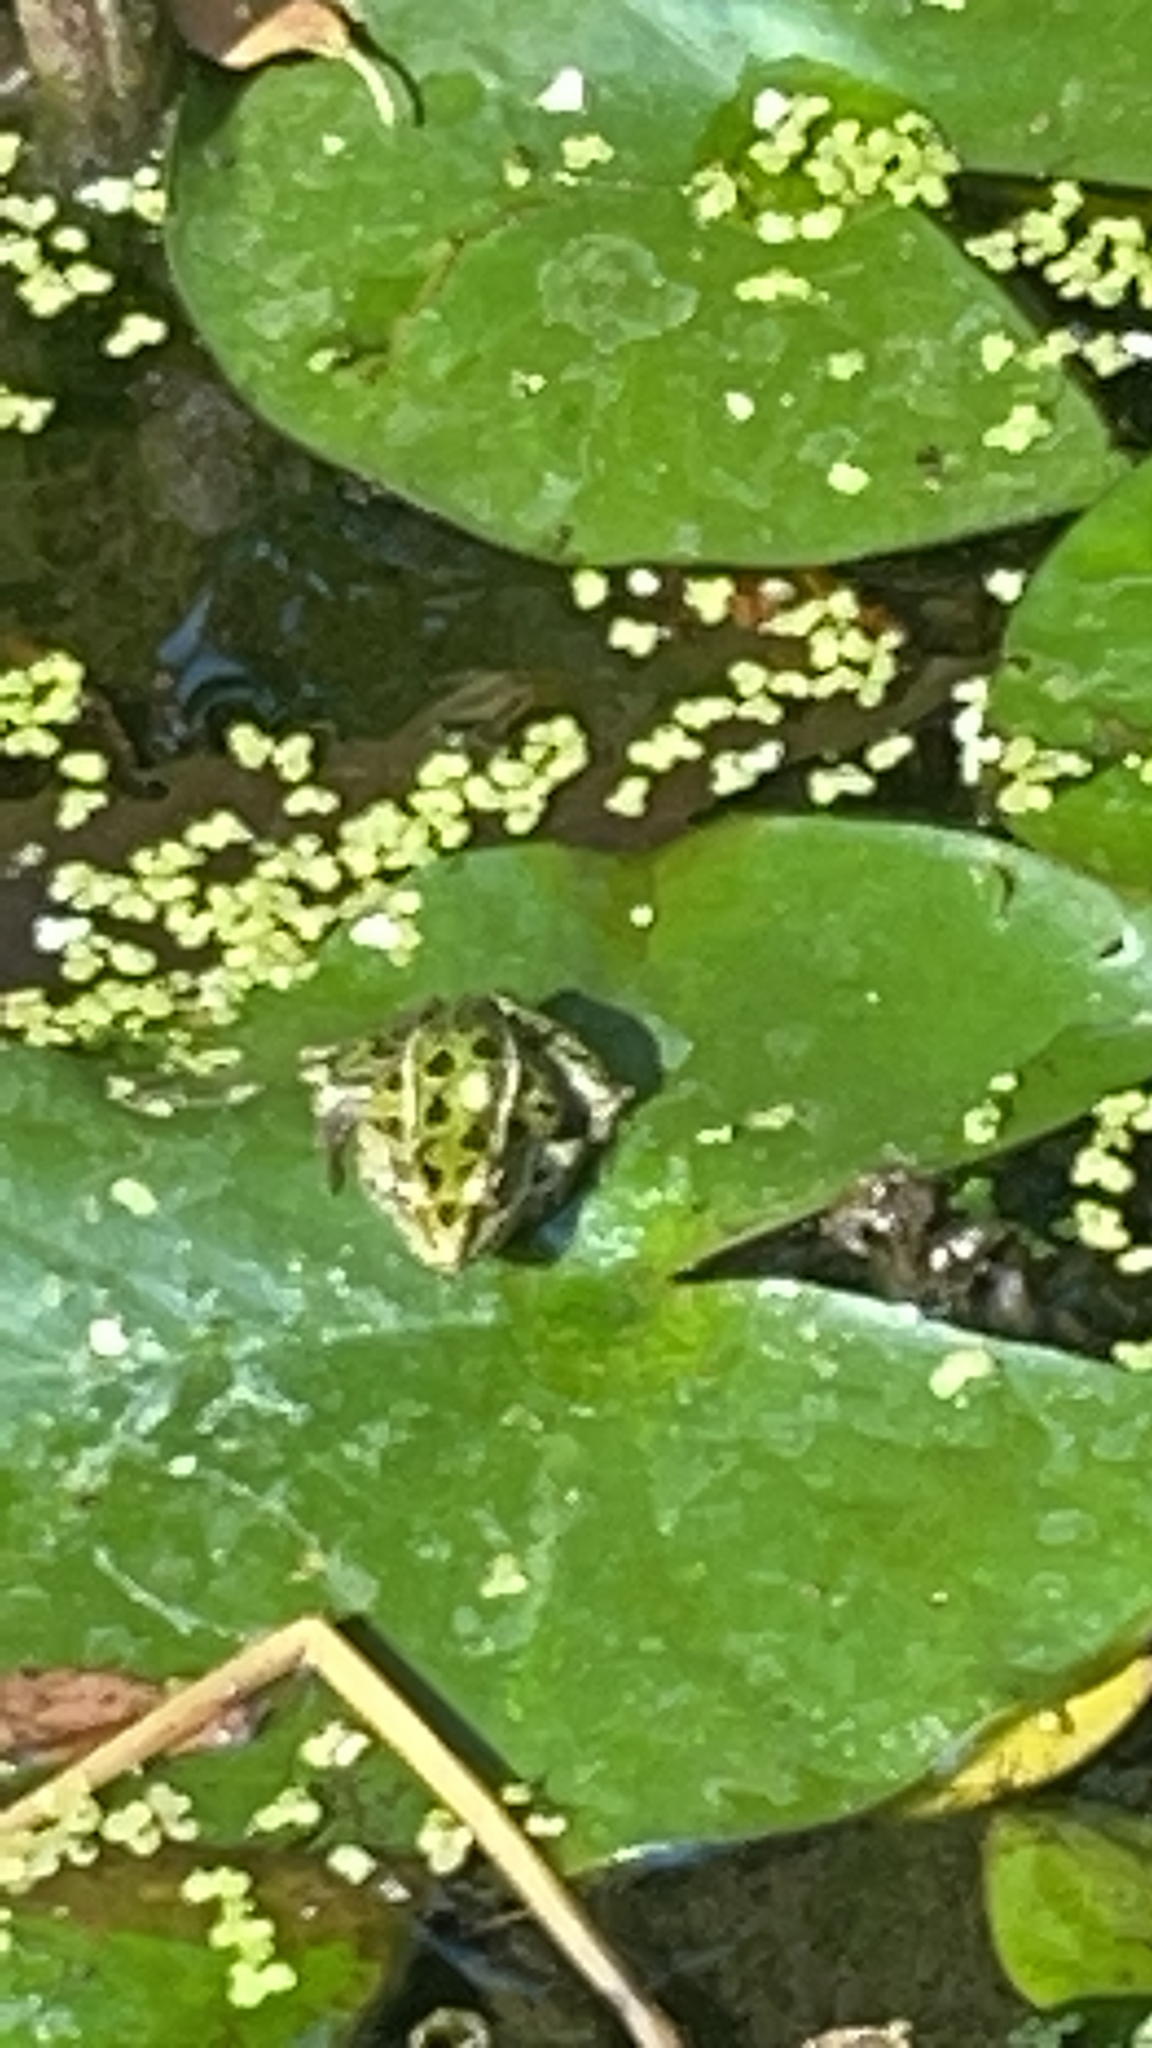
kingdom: Animalia
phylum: Chordata
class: Amphibia
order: Anura
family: Ranidae
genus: Lithobates
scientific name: Lithobates pipiens
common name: Northern leopard frog
